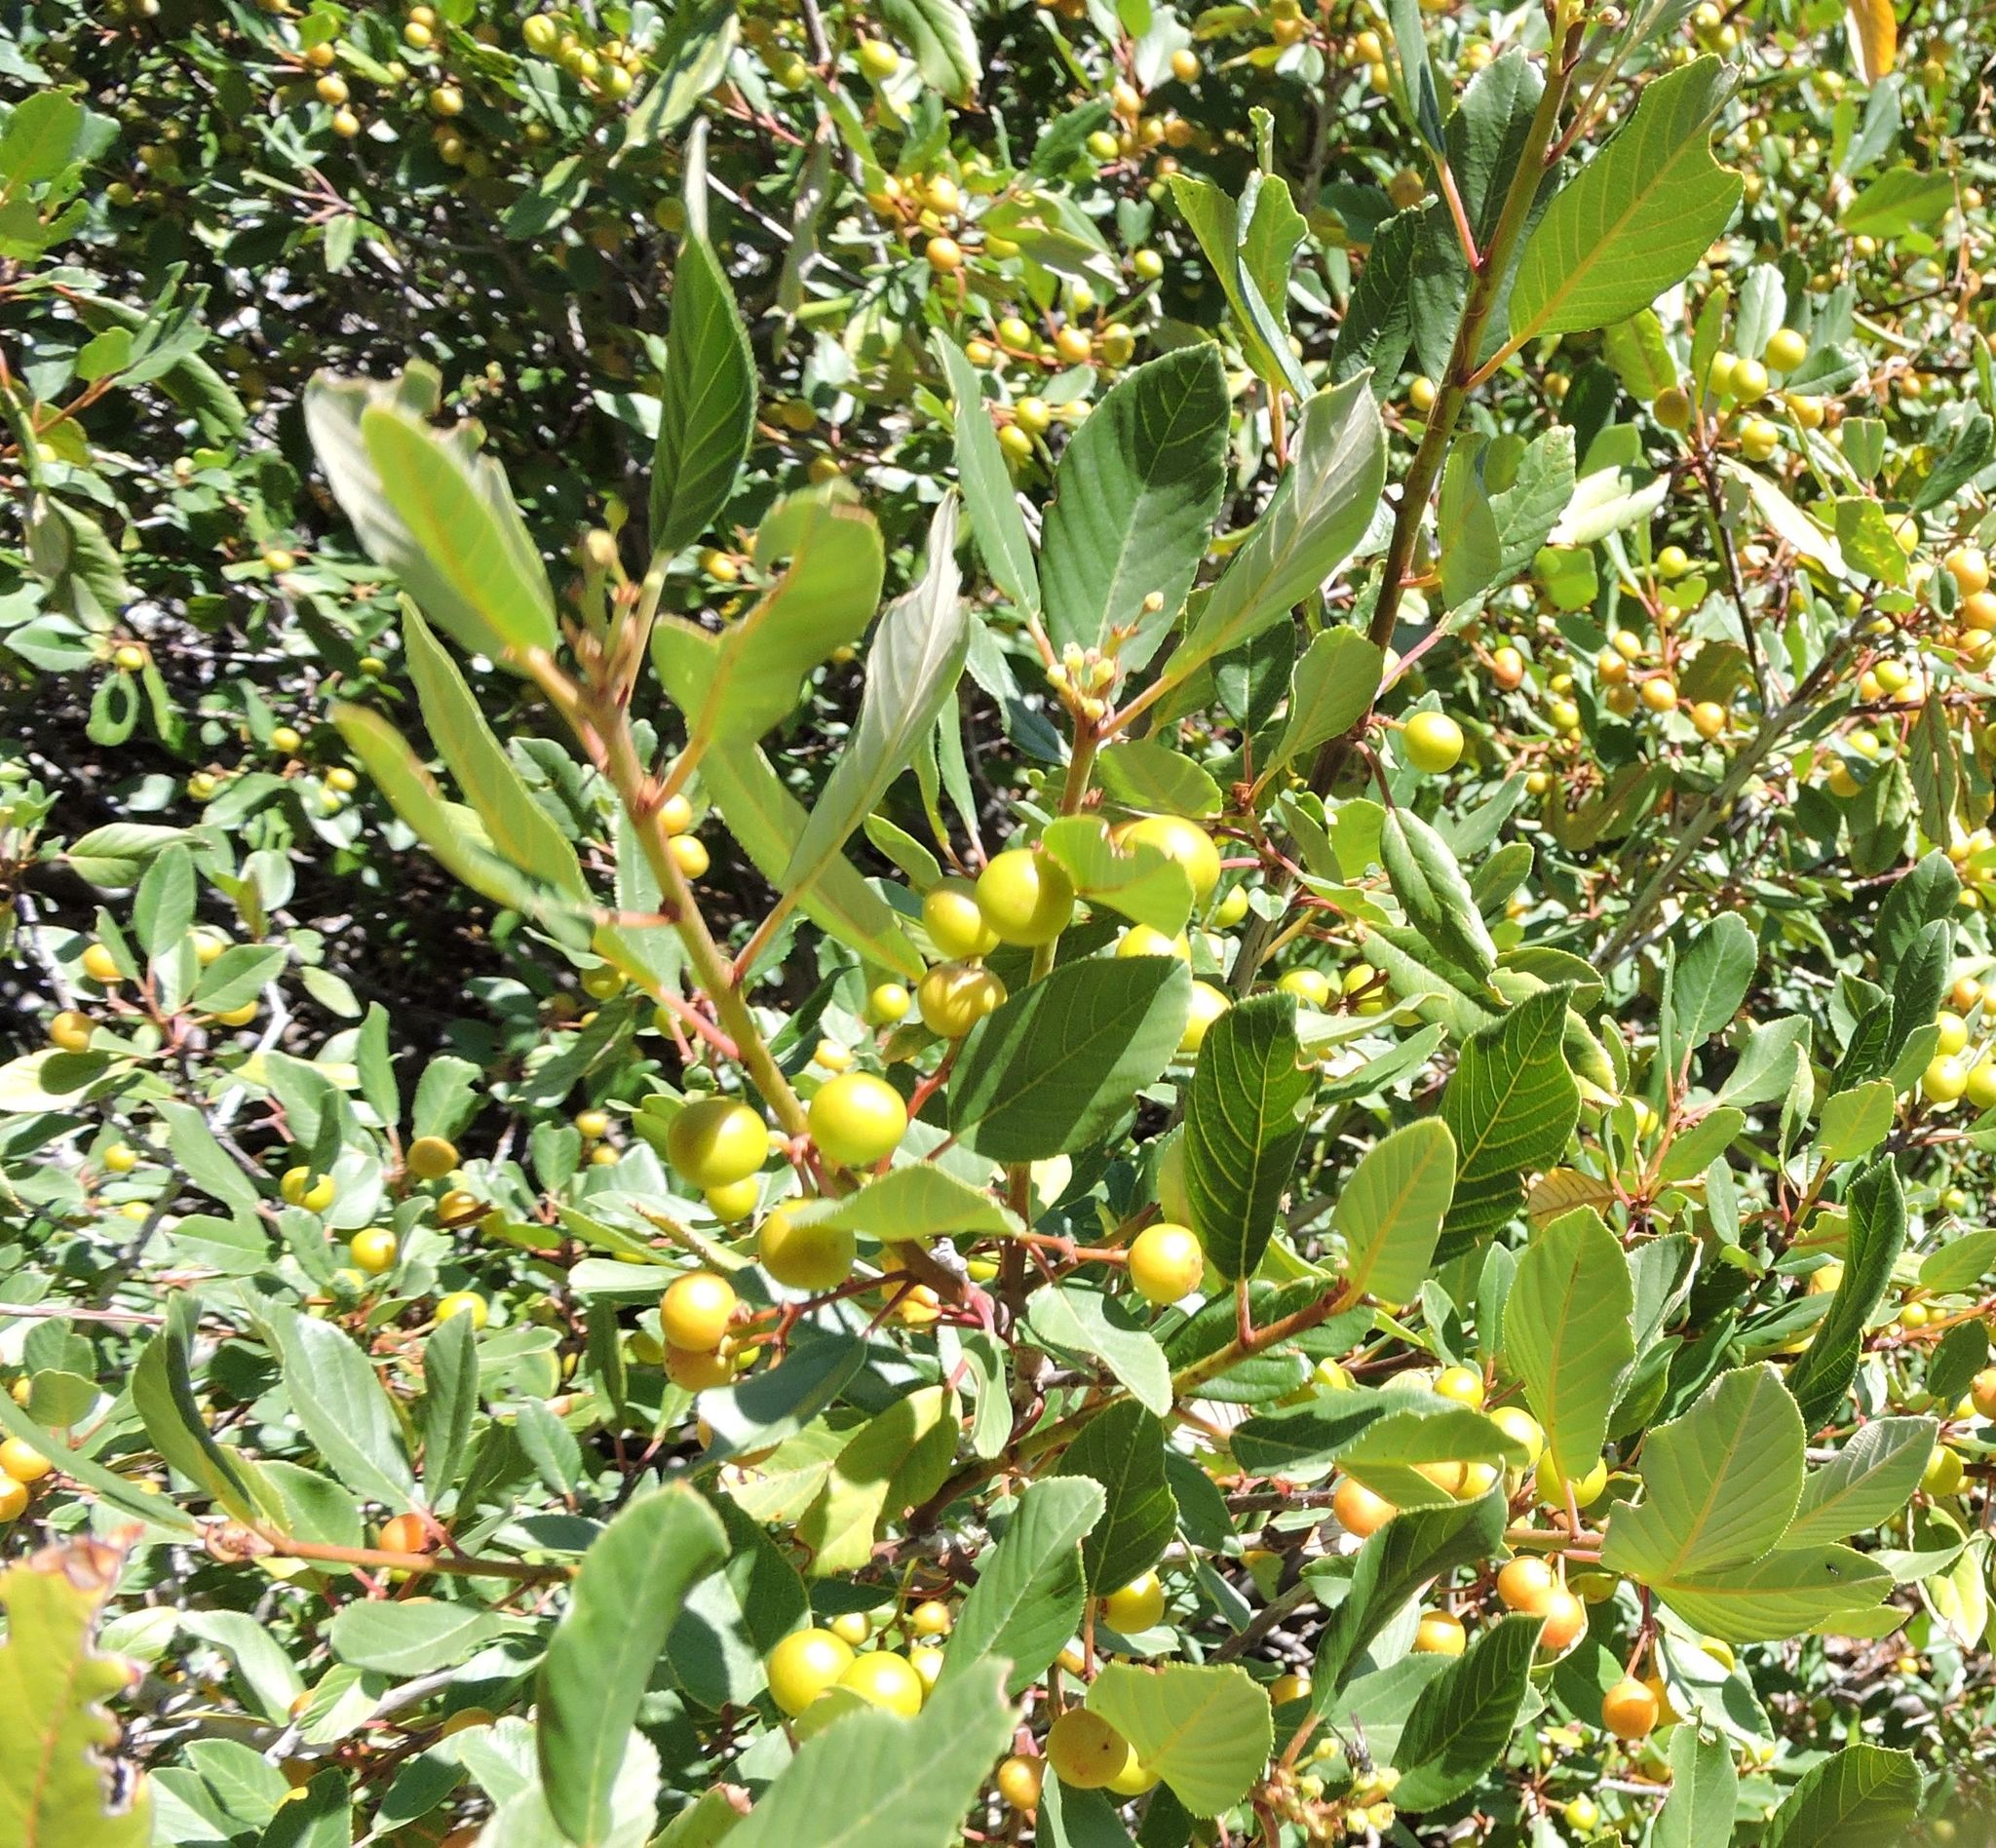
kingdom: Plantae
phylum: Tracheophyta
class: Magnoliopsida
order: Rosales
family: Rhamnaceae
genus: Frangula
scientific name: Frangula californica
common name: California buckthorn
